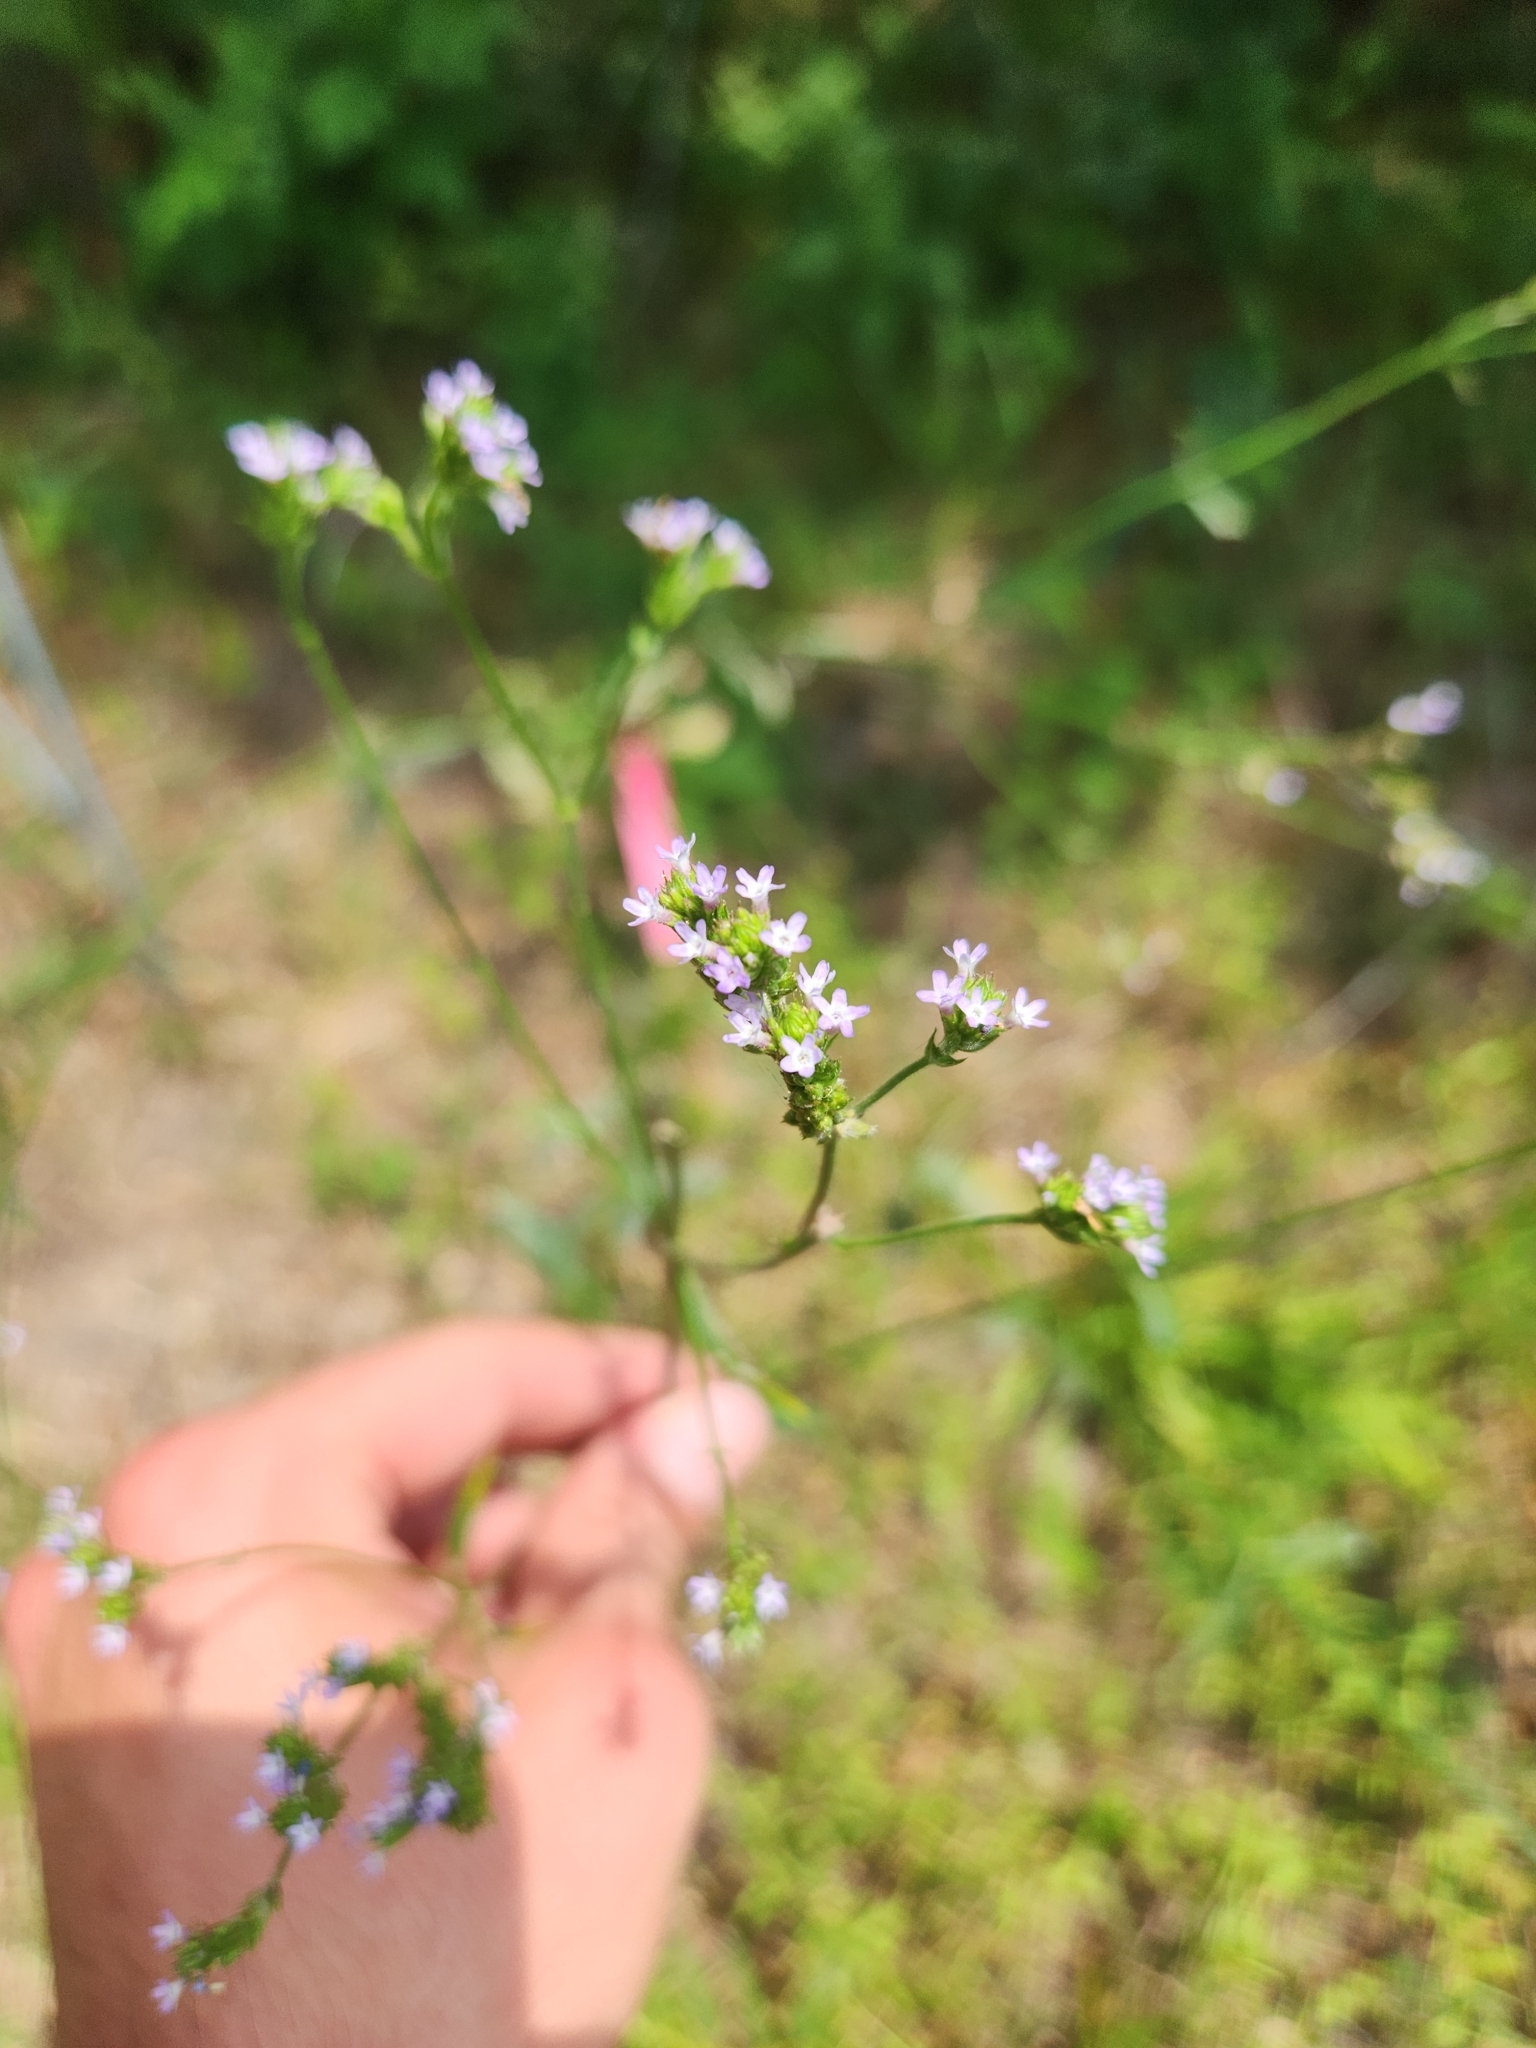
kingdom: Plantae
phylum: Tracheophyta
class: Magnoliopsida
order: Lamiales
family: Verbenaceae
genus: Verbena
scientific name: Verbena brasiliensis
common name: Brazilian vervain
